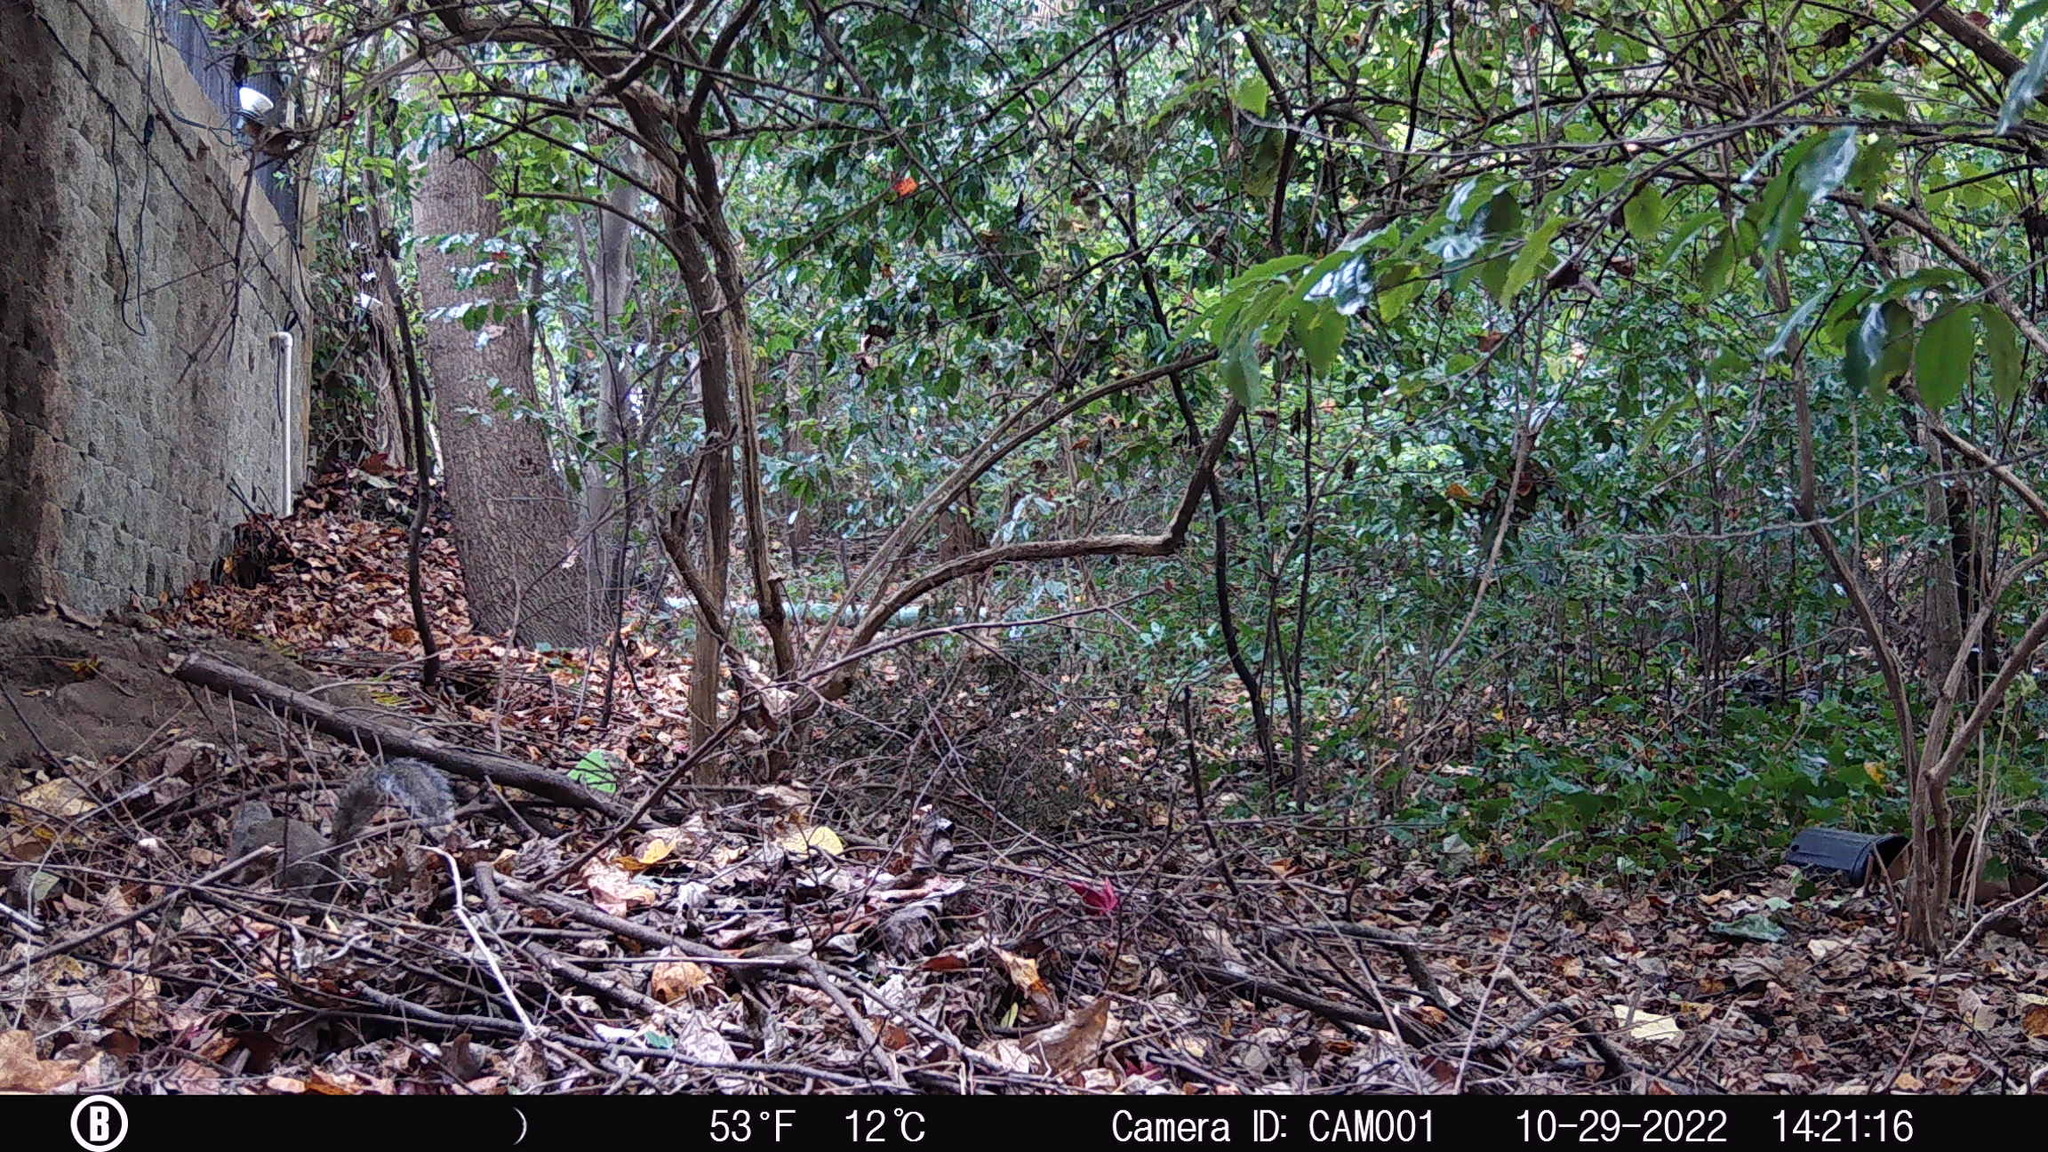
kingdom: Animalia
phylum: Chordata
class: Mammalia
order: Rodentia
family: Sciuridae
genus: Sciurus
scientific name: Sciurus carolinensis
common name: Eastern gray squirrel
